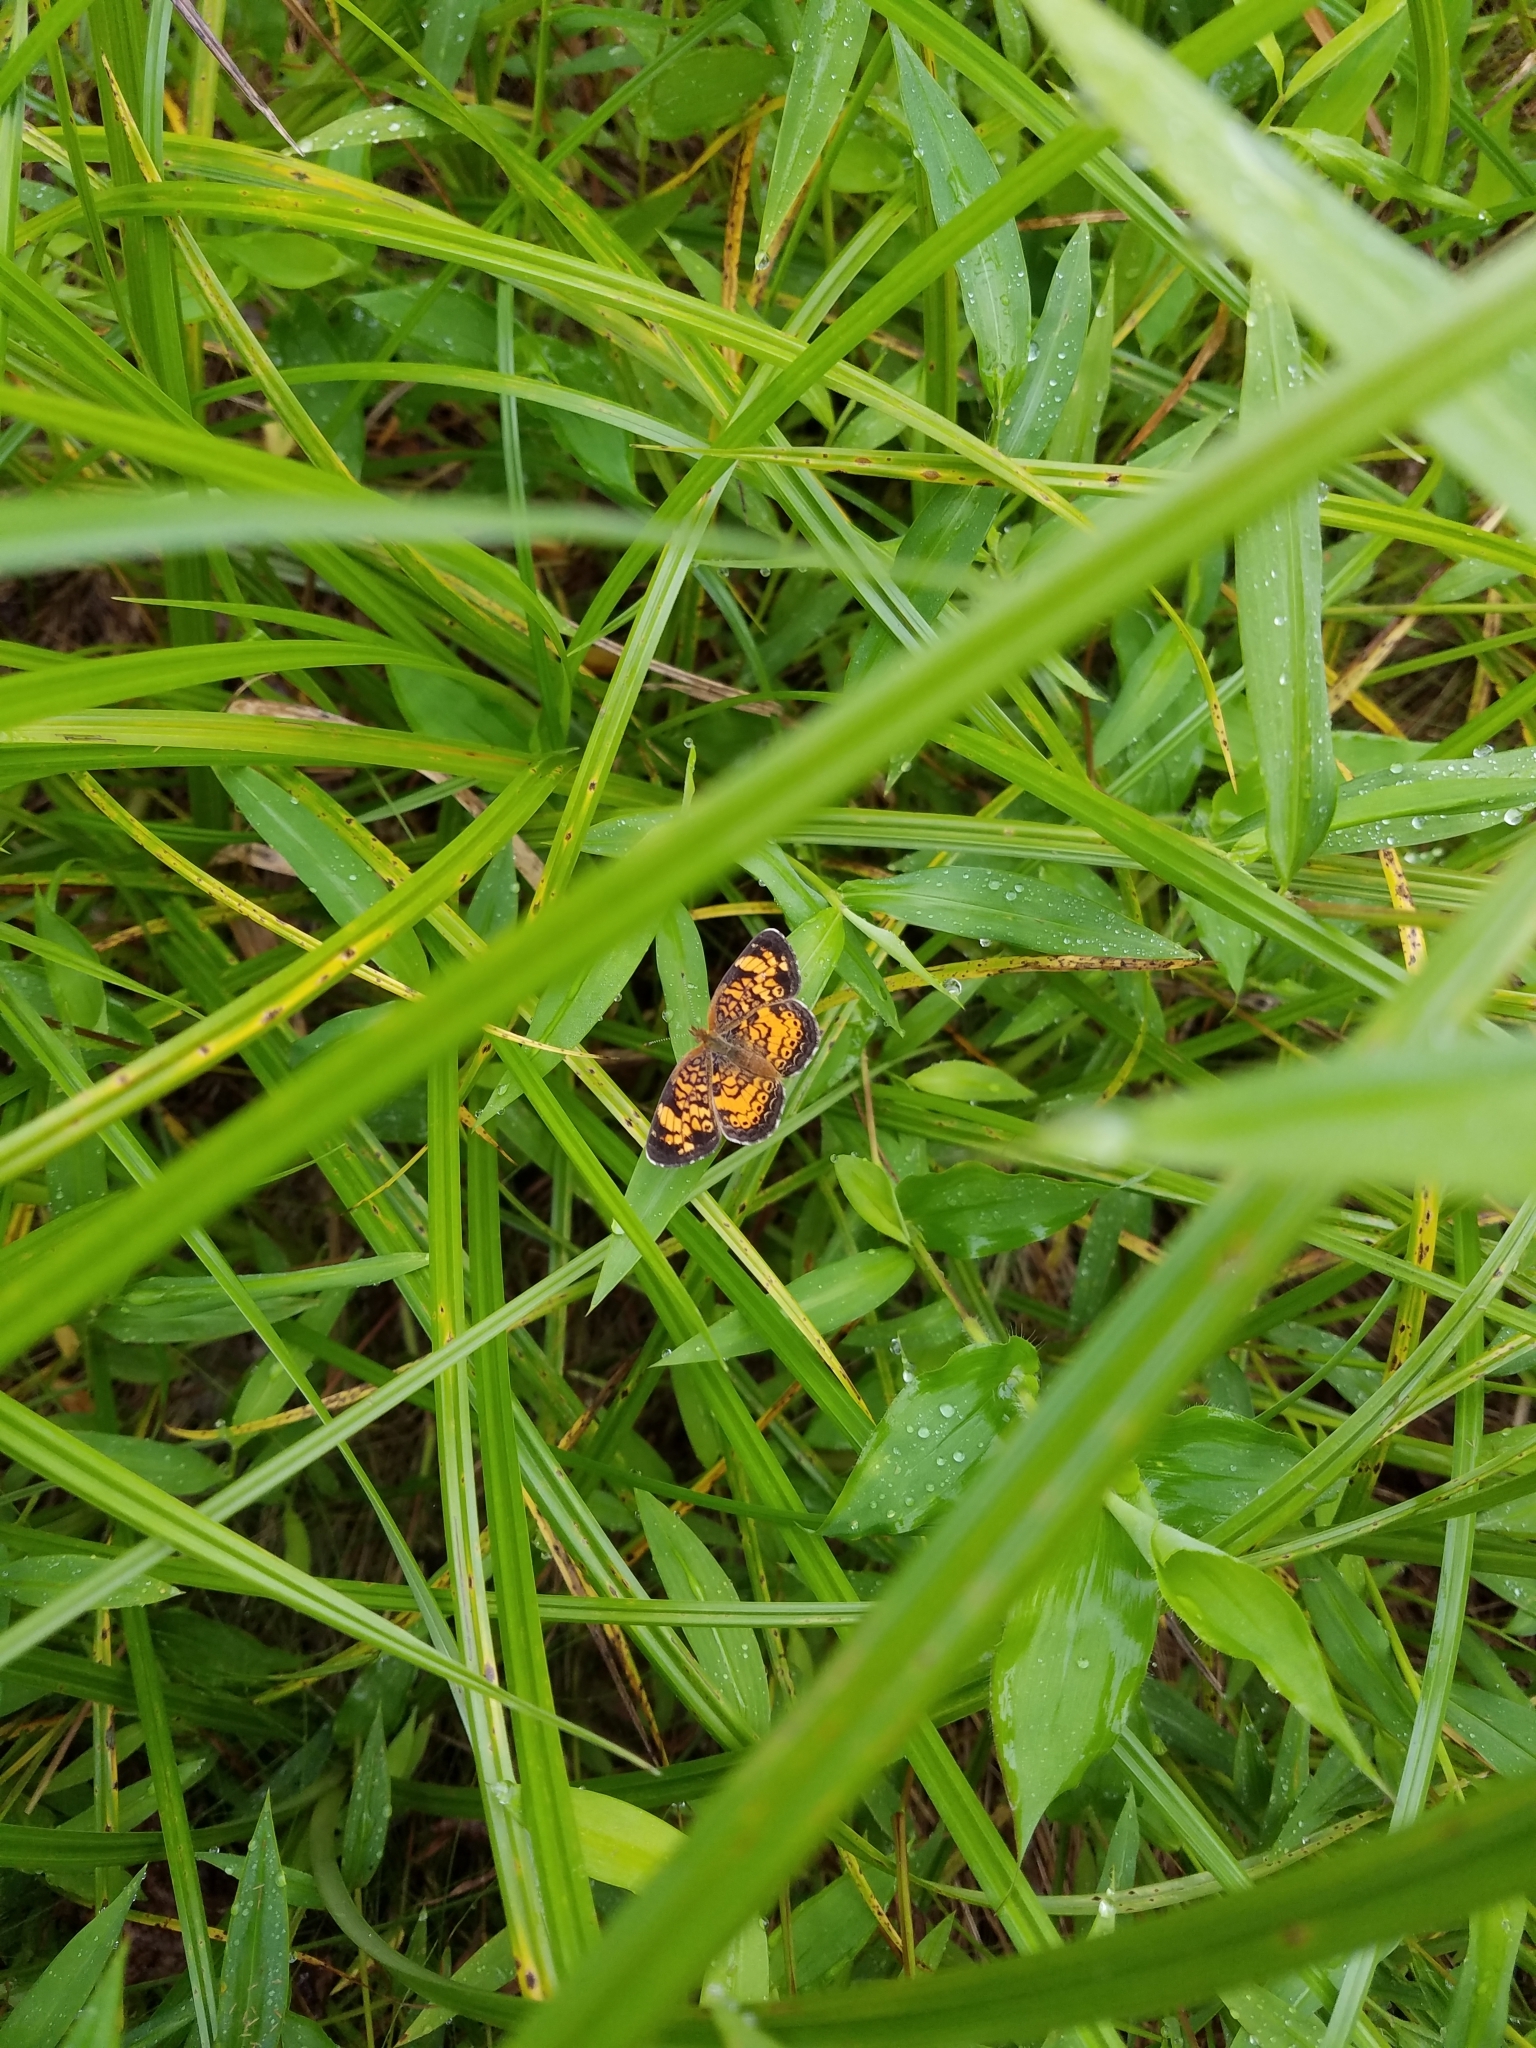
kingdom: Animalia
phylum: Arthropoda
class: Insecta
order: Lepidoptera
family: Nymphalidae
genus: Phyciodes
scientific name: Phyciodes tharos
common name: Pearl crescent
